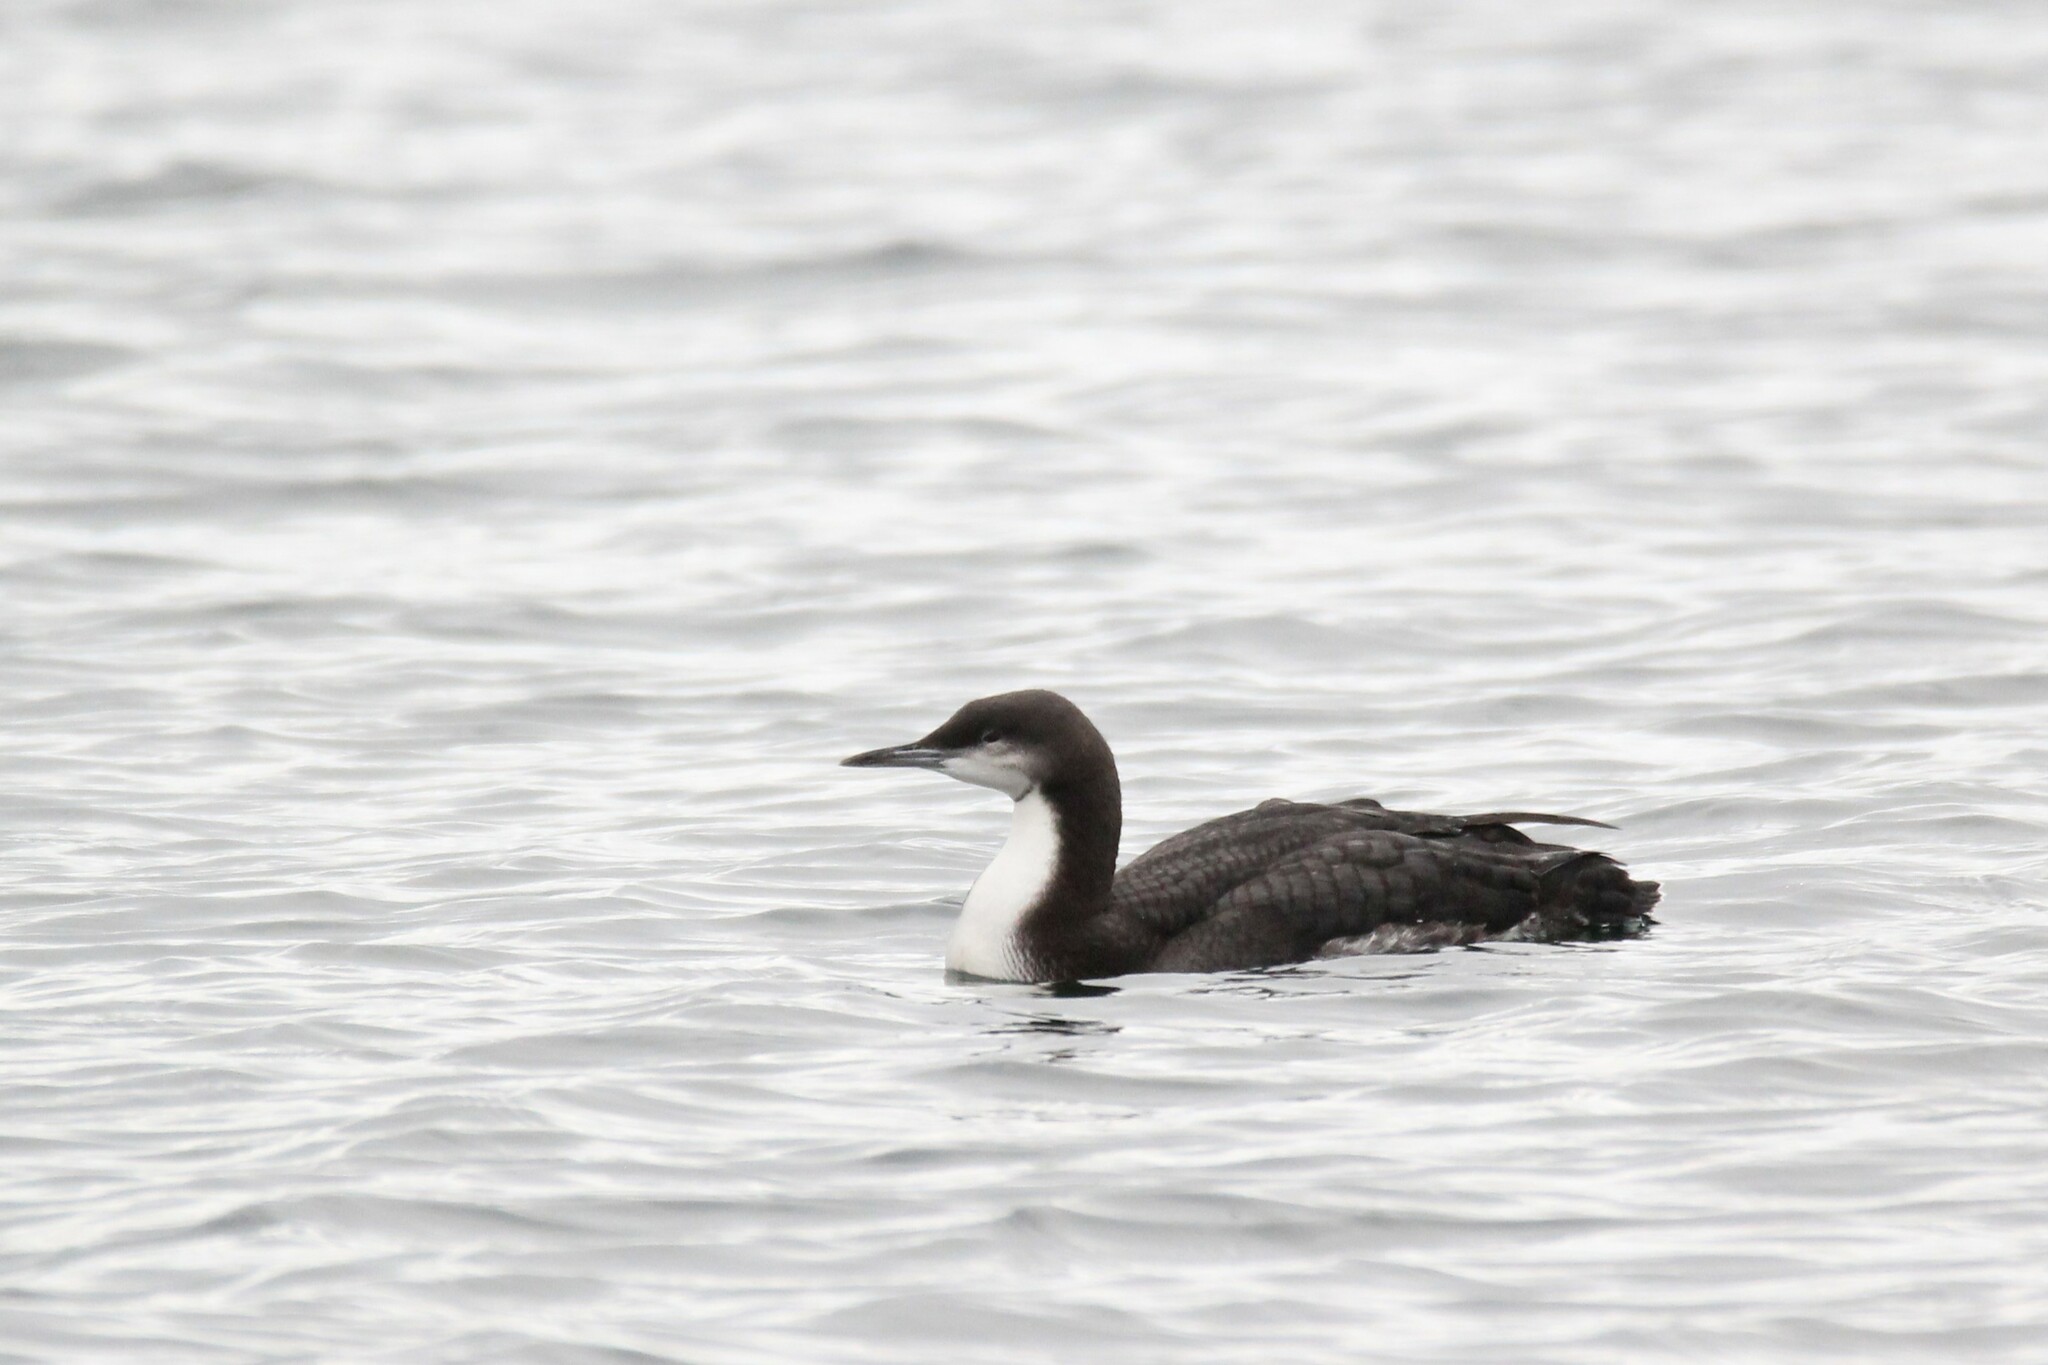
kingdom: Animalia
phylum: Chordata
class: Aves
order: Gaviiformes
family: Gaviidae
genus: Gavia
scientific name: Gavia pacifica
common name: Pacific loon
